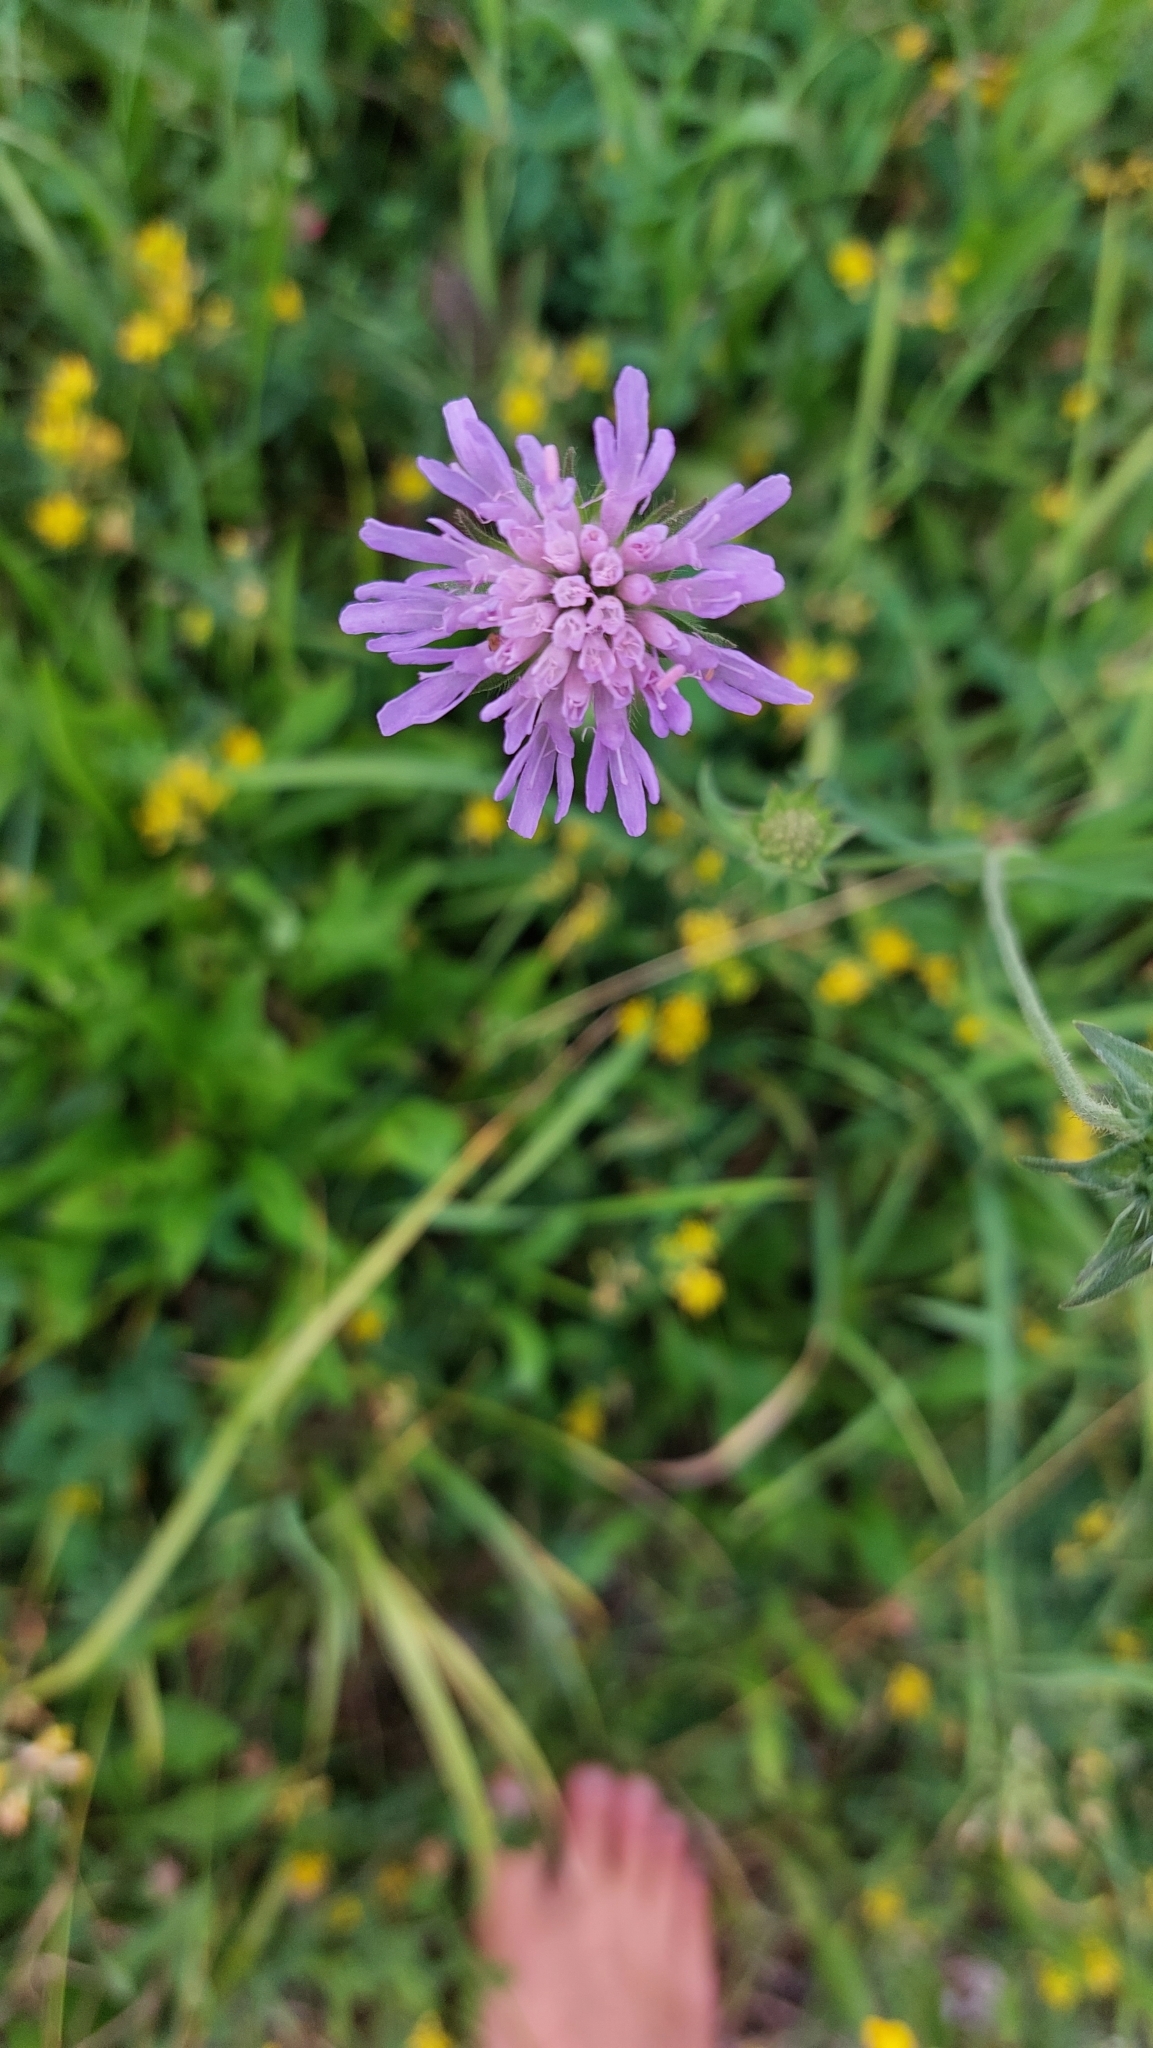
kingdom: Plantae
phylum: Tracheophyta
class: Magnoliopsida
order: Dipsacales
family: Caprifoliaceae
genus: Knautia
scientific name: Knautia arvensis
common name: Field scabiosa
